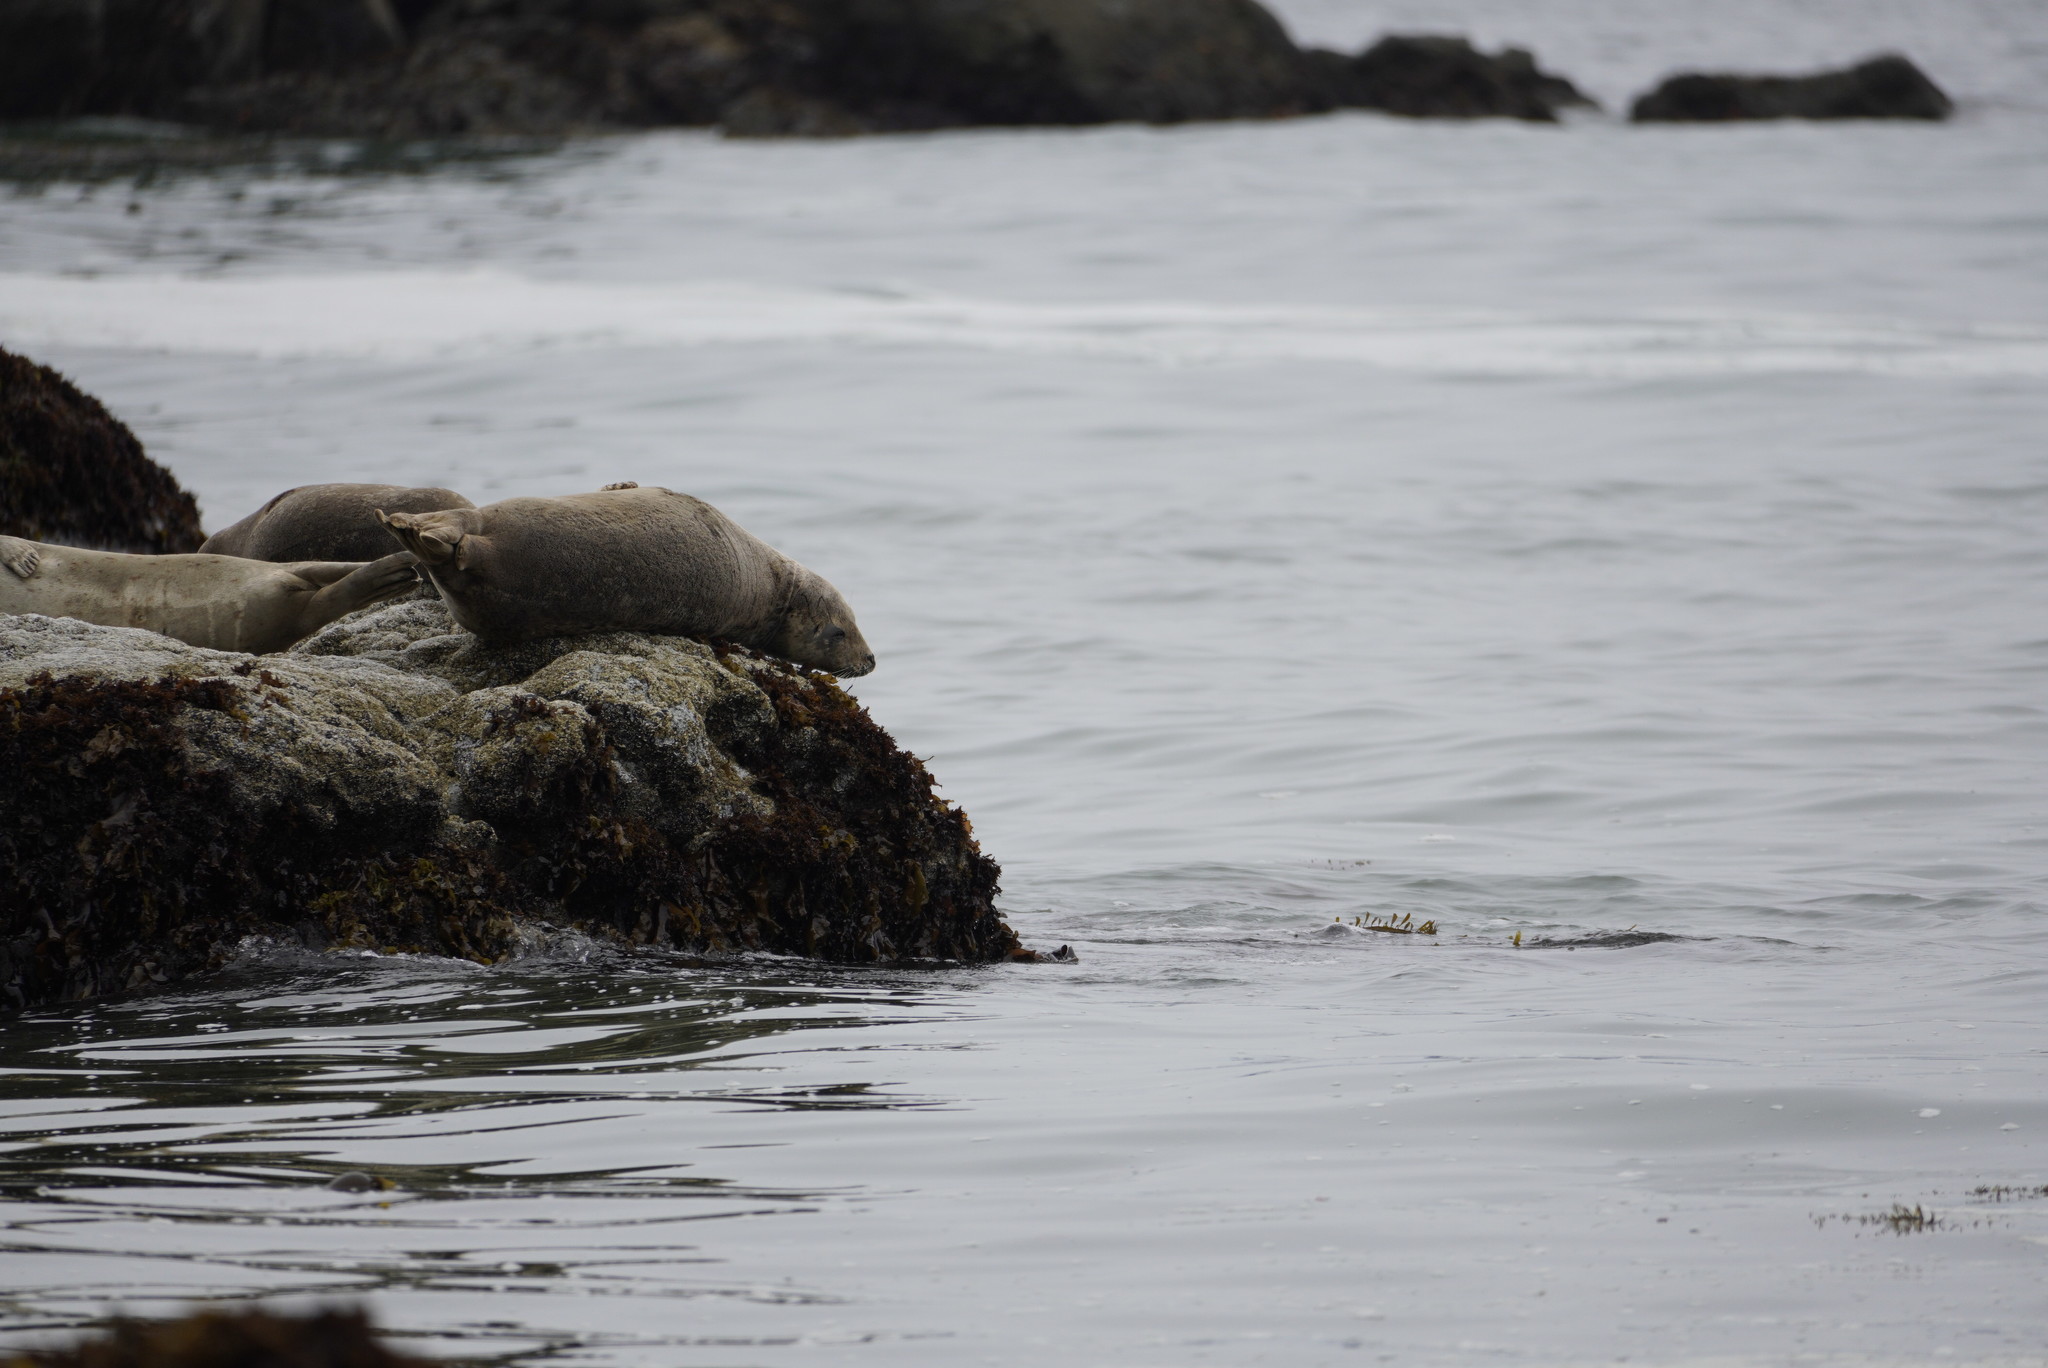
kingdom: Animalia
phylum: Chordata
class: Mammalia
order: Carnivora
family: Phocidae
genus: Phoca
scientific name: Phoca vitulina
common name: Harbor seal
